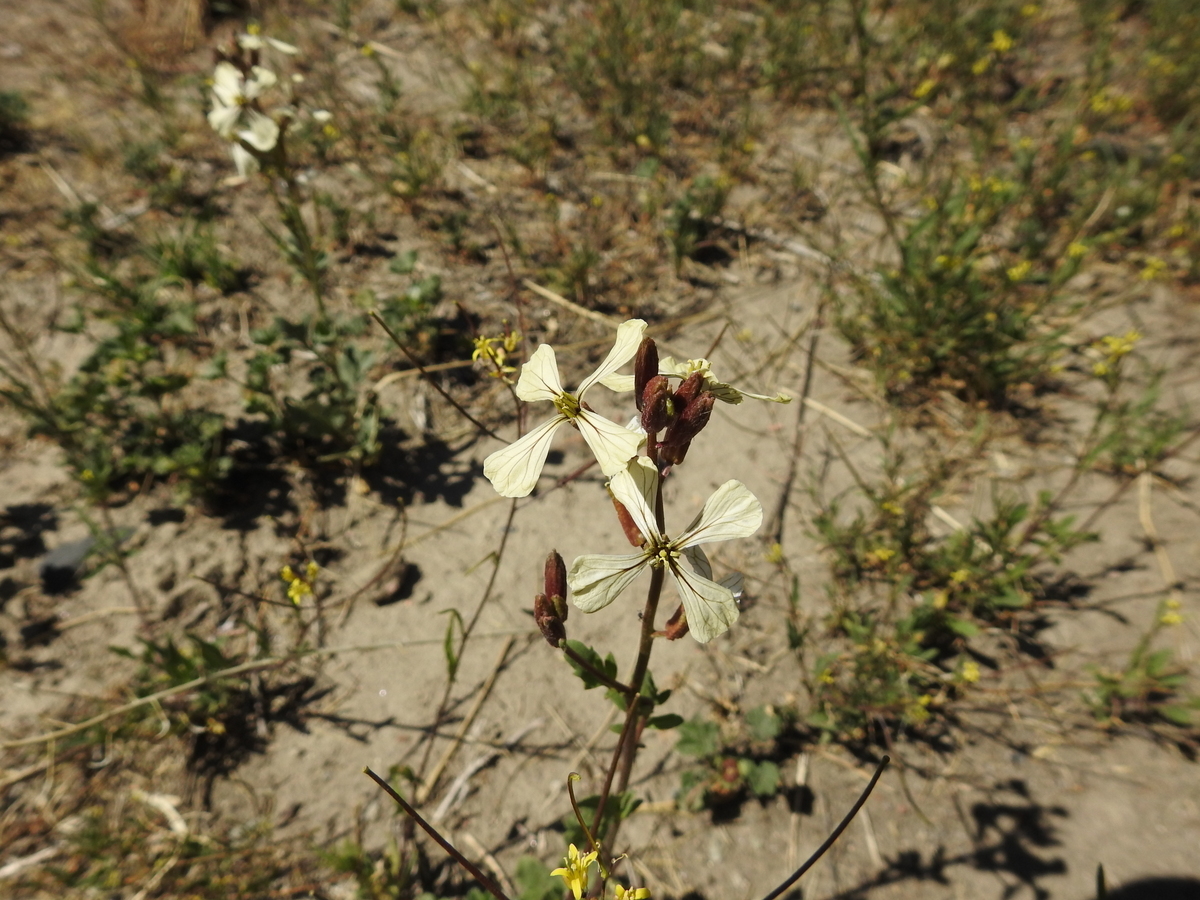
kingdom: Plantae
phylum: Tracheophyta
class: Magnoliopsida
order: Brassicales
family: Brassicaceae
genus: Eruca
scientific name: Eruca vesicaria
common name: Garden rocket
